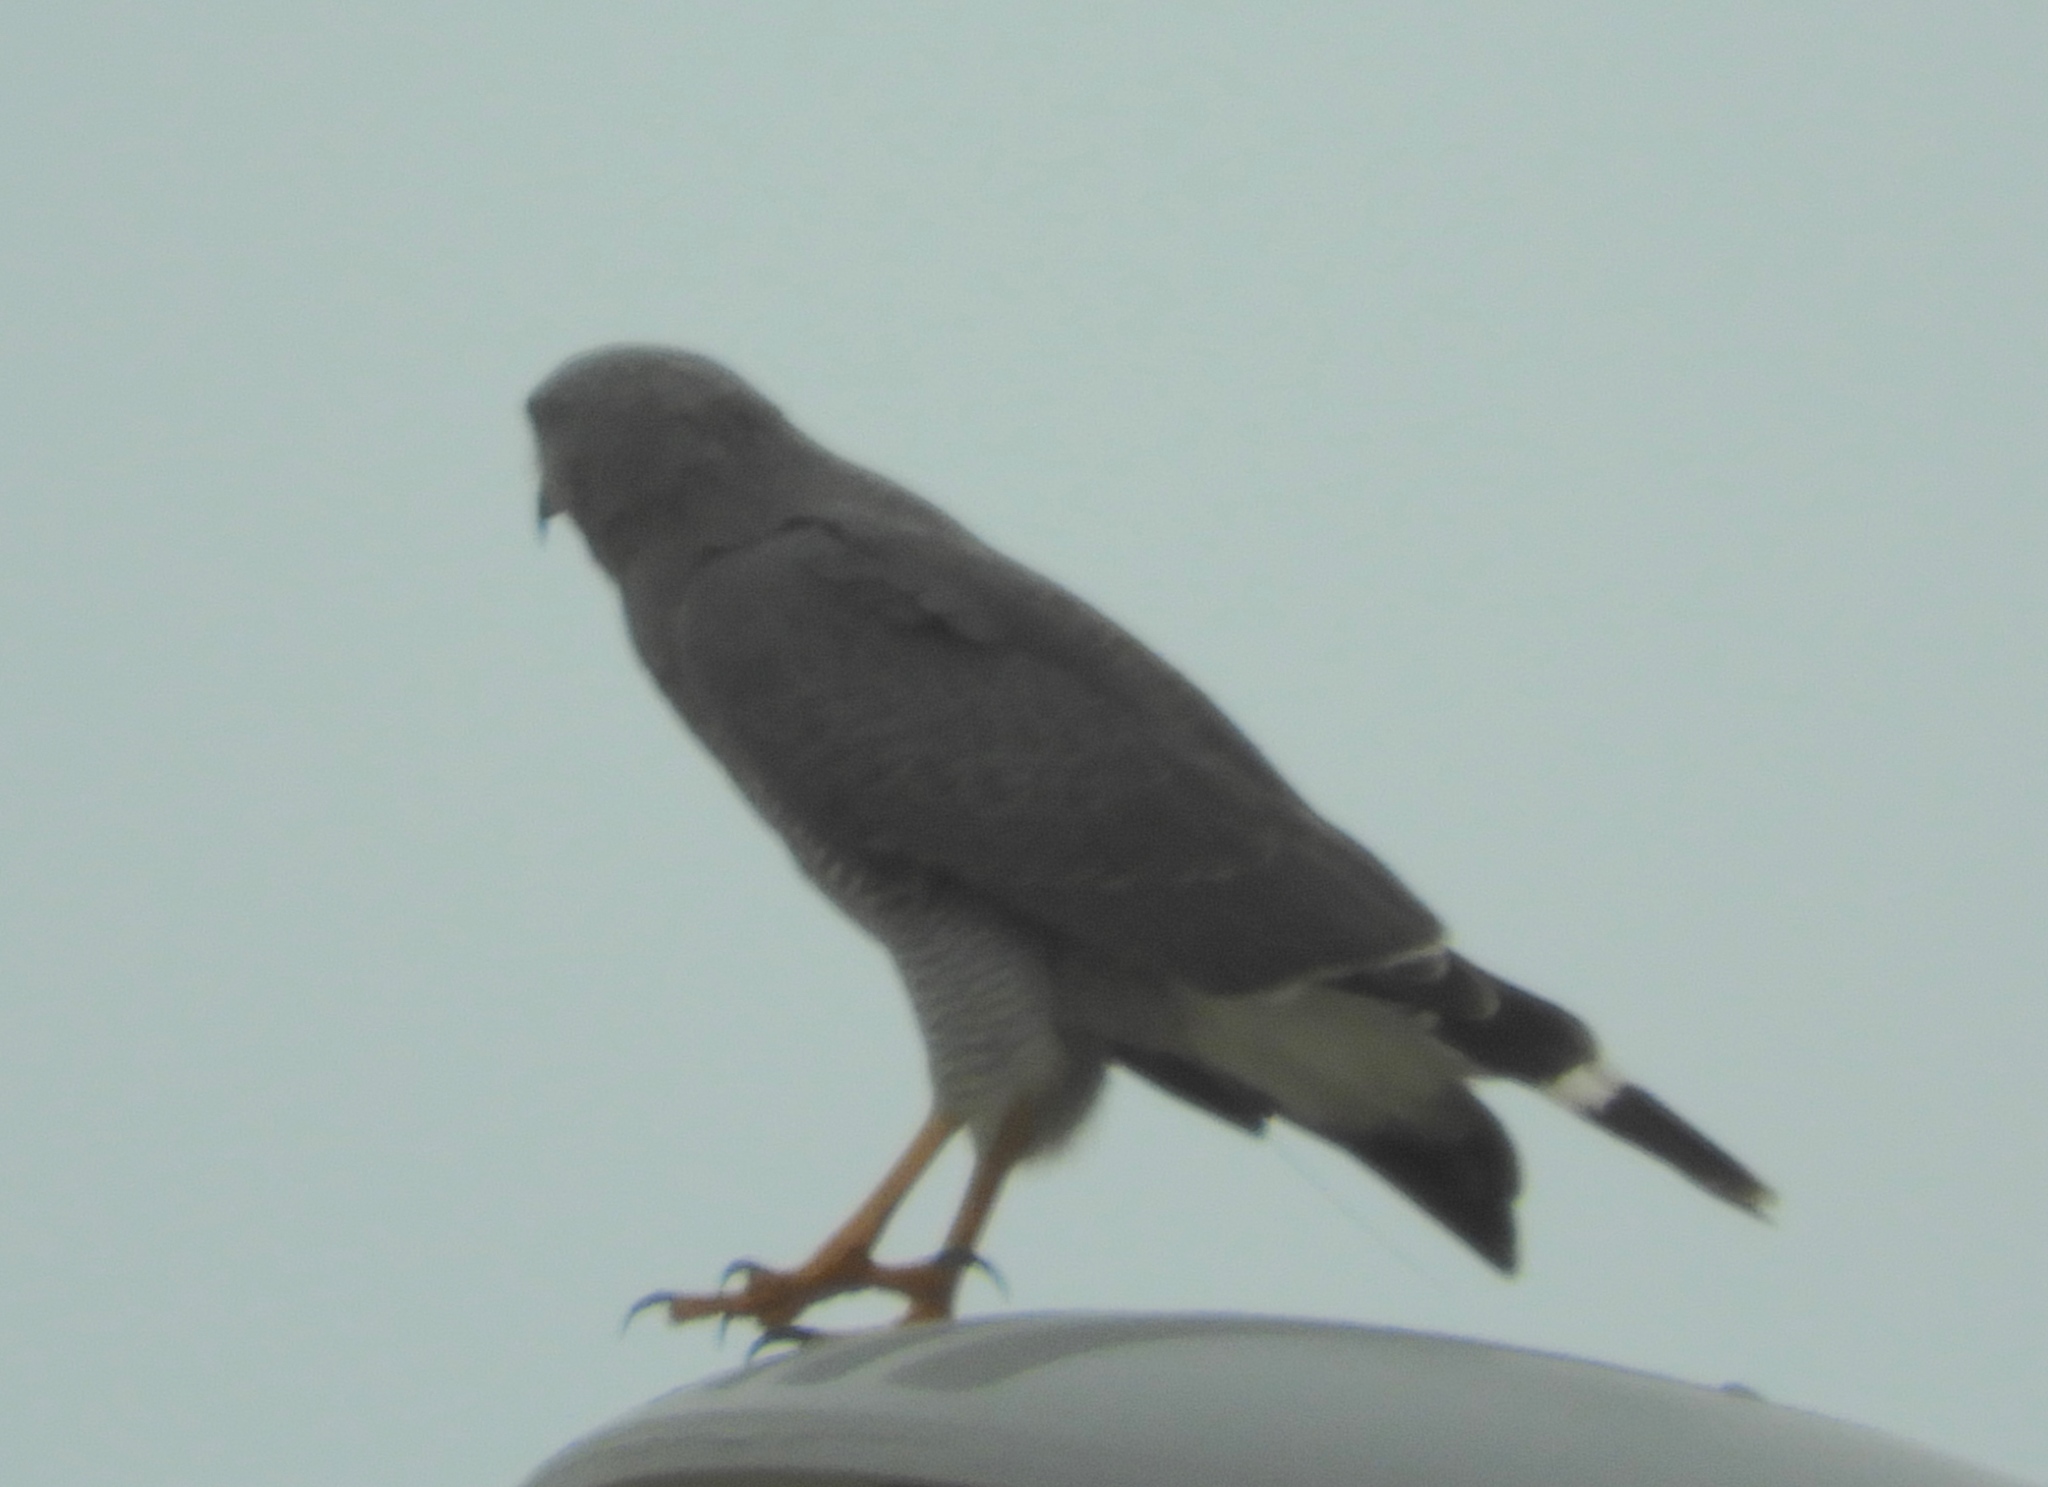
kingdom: Animalia
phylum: Chordata
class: Aves
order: Accipitriformes
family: Accipitridae
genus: Buteo
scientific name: Buteo nitidus
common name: Grey-lined hawk
